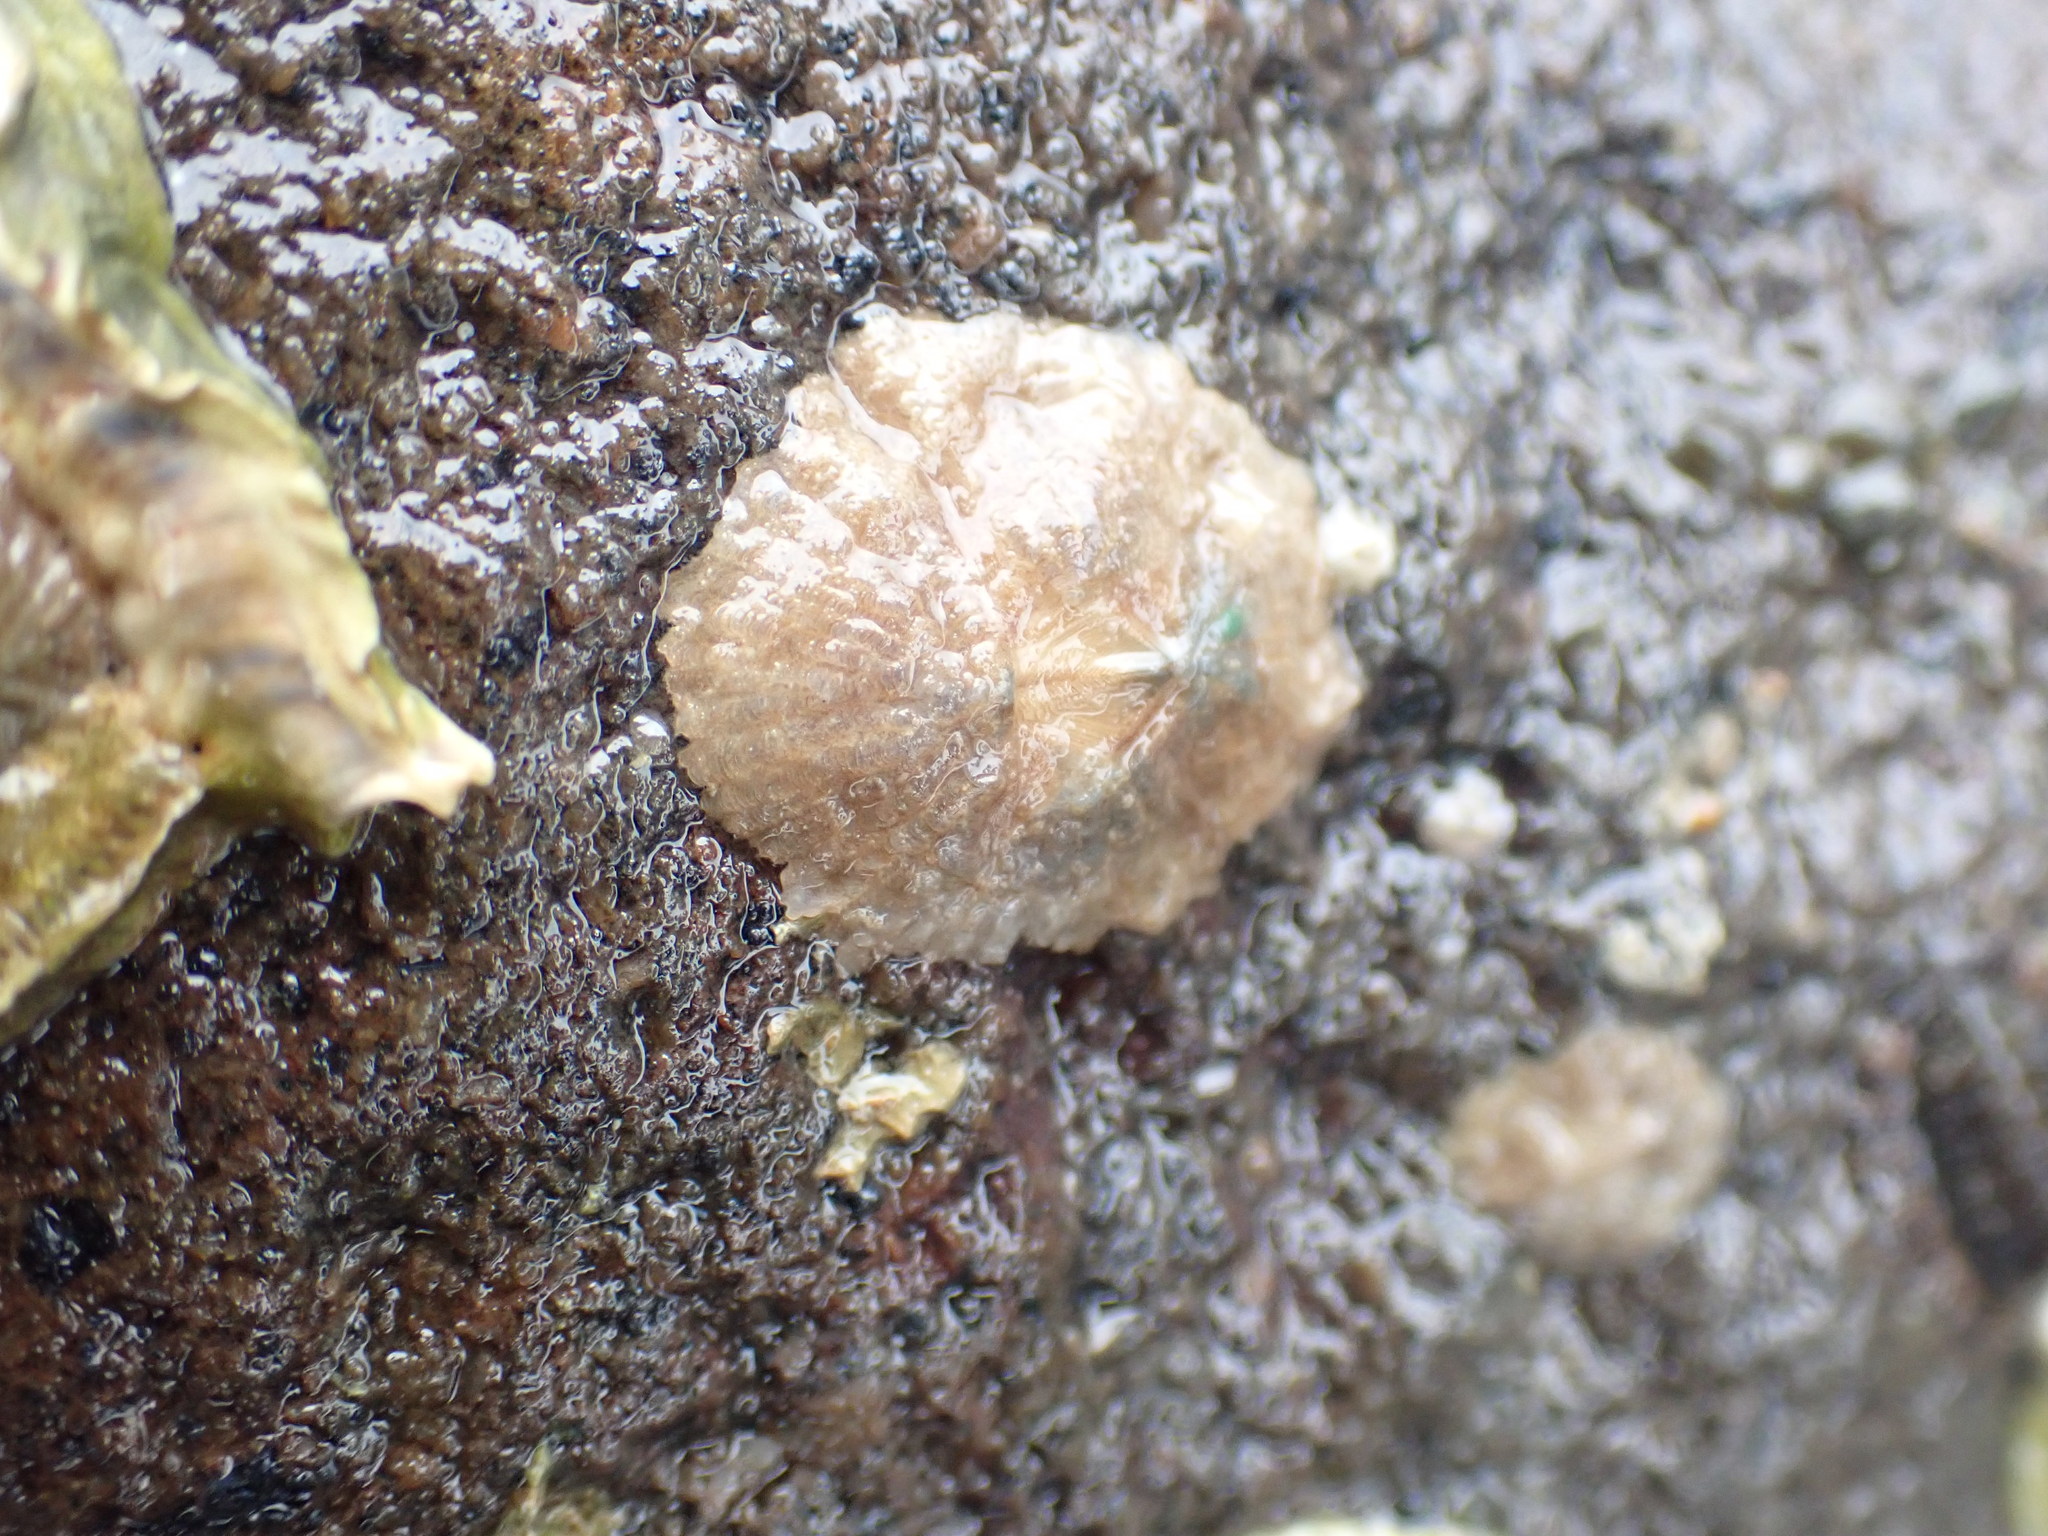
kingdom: Animalia
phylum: Arthropoda
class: Maxillopoda
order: Sessilia
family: Tetraclitidae
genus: Tetraclitella
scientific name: Tetraclitella depressa
